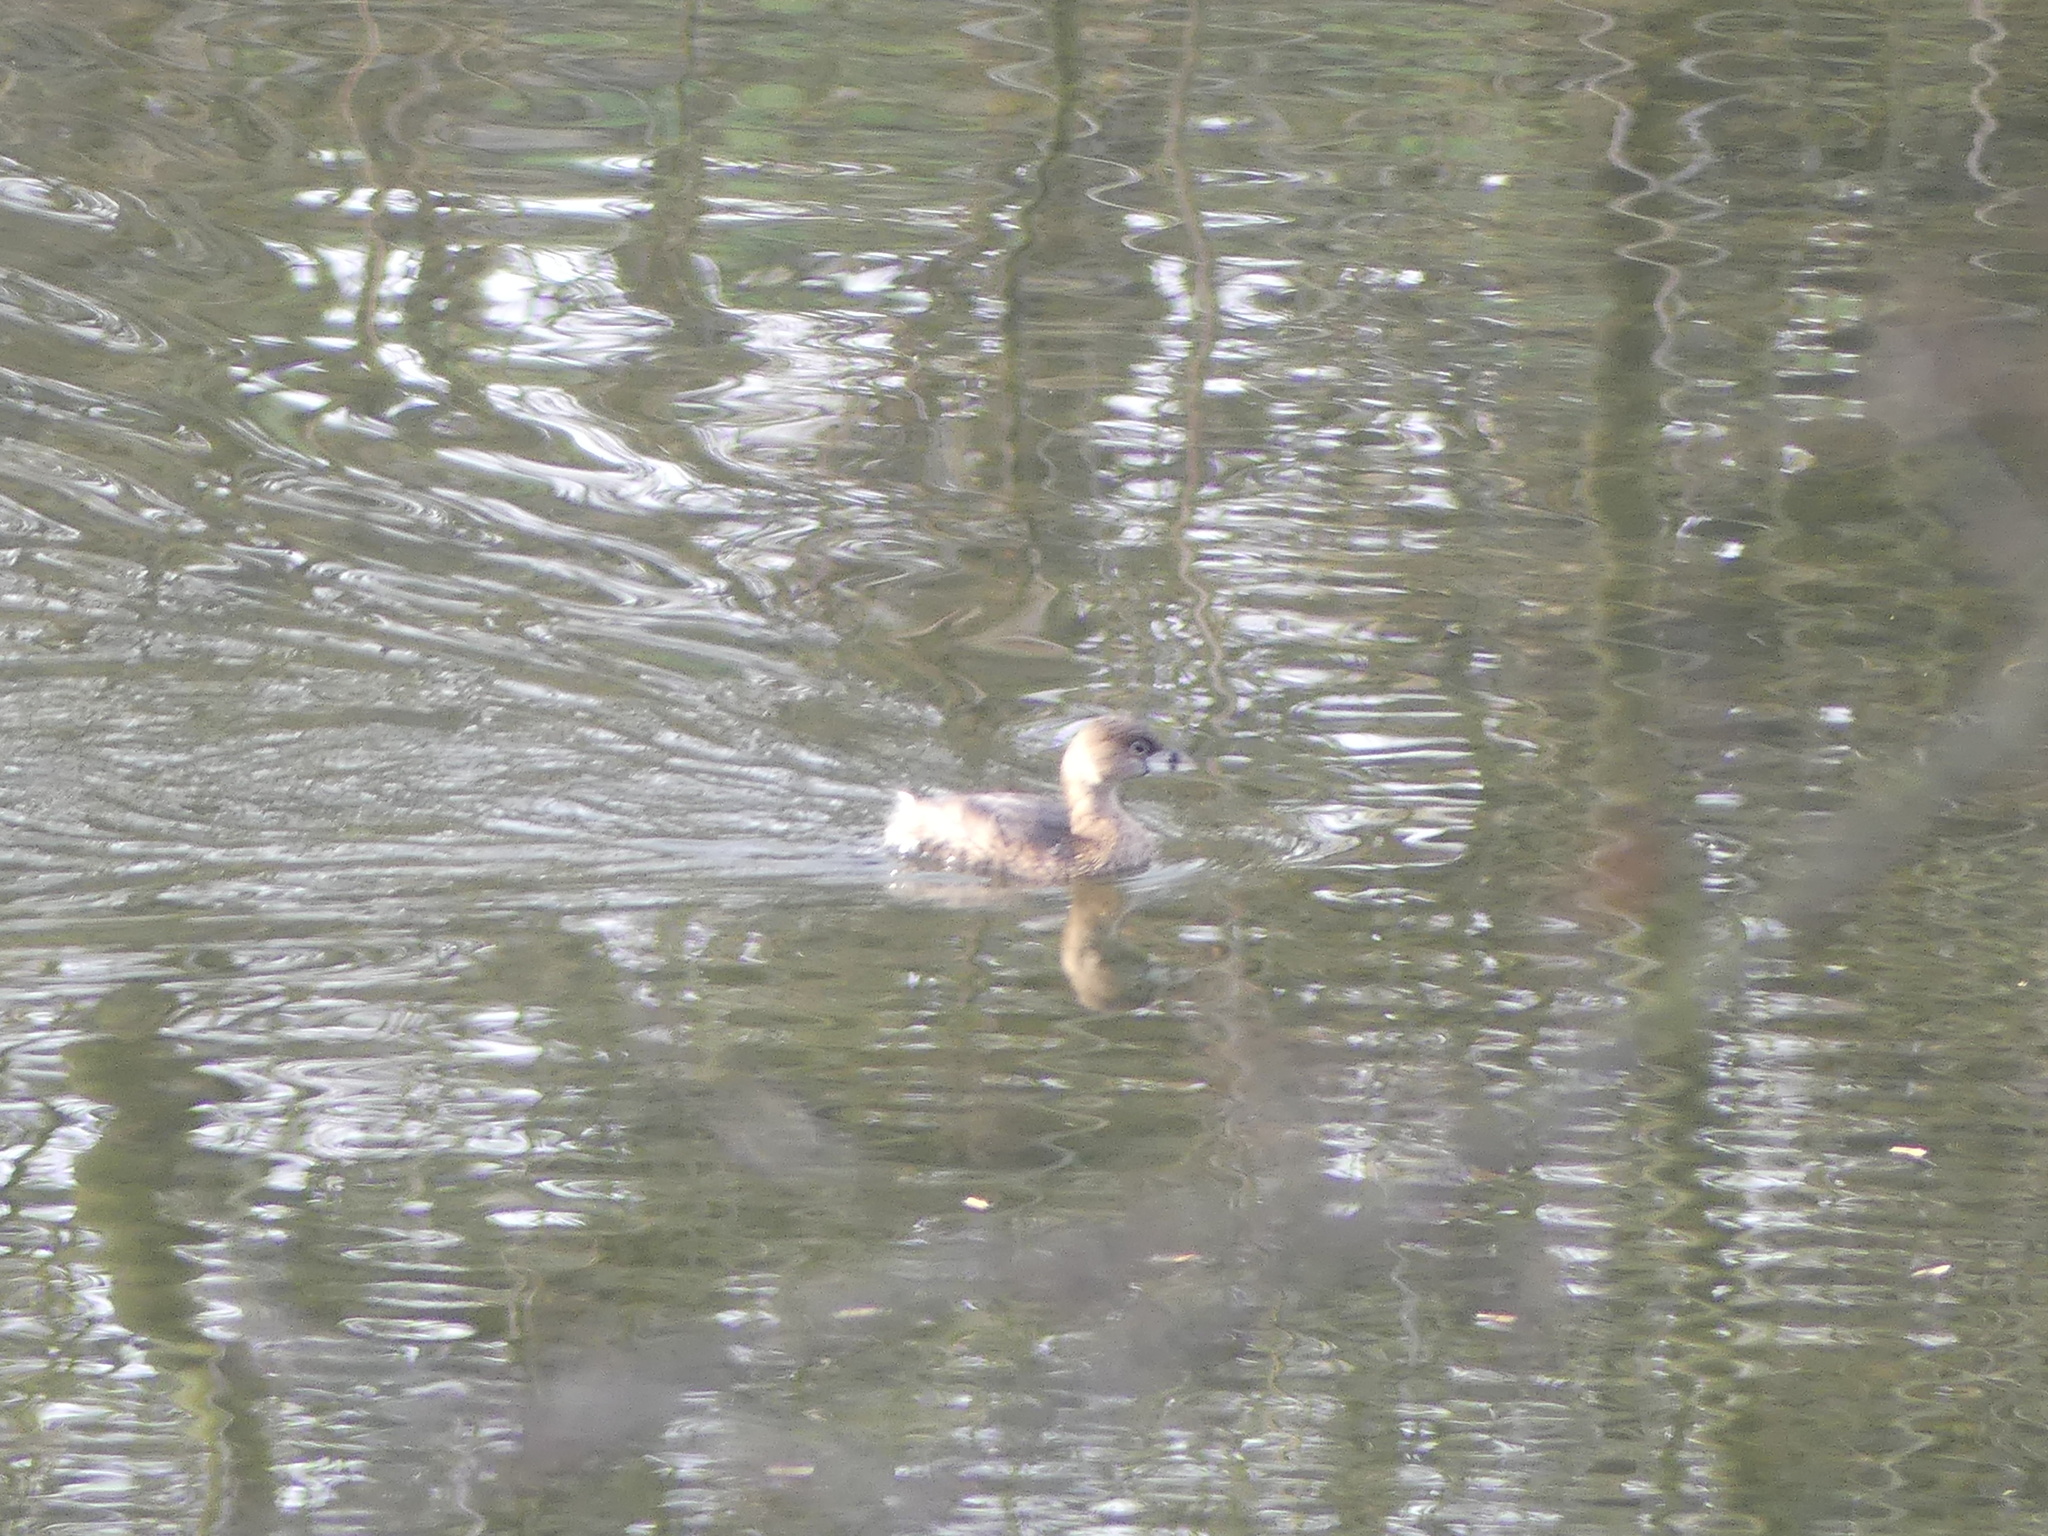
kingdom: Animalia
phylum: Chordata
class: Aves
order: Podicipediformes
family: Podicipedidae
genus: Podilymbus
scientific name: Podilymbus podiceps
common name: Pied-billed grebe
